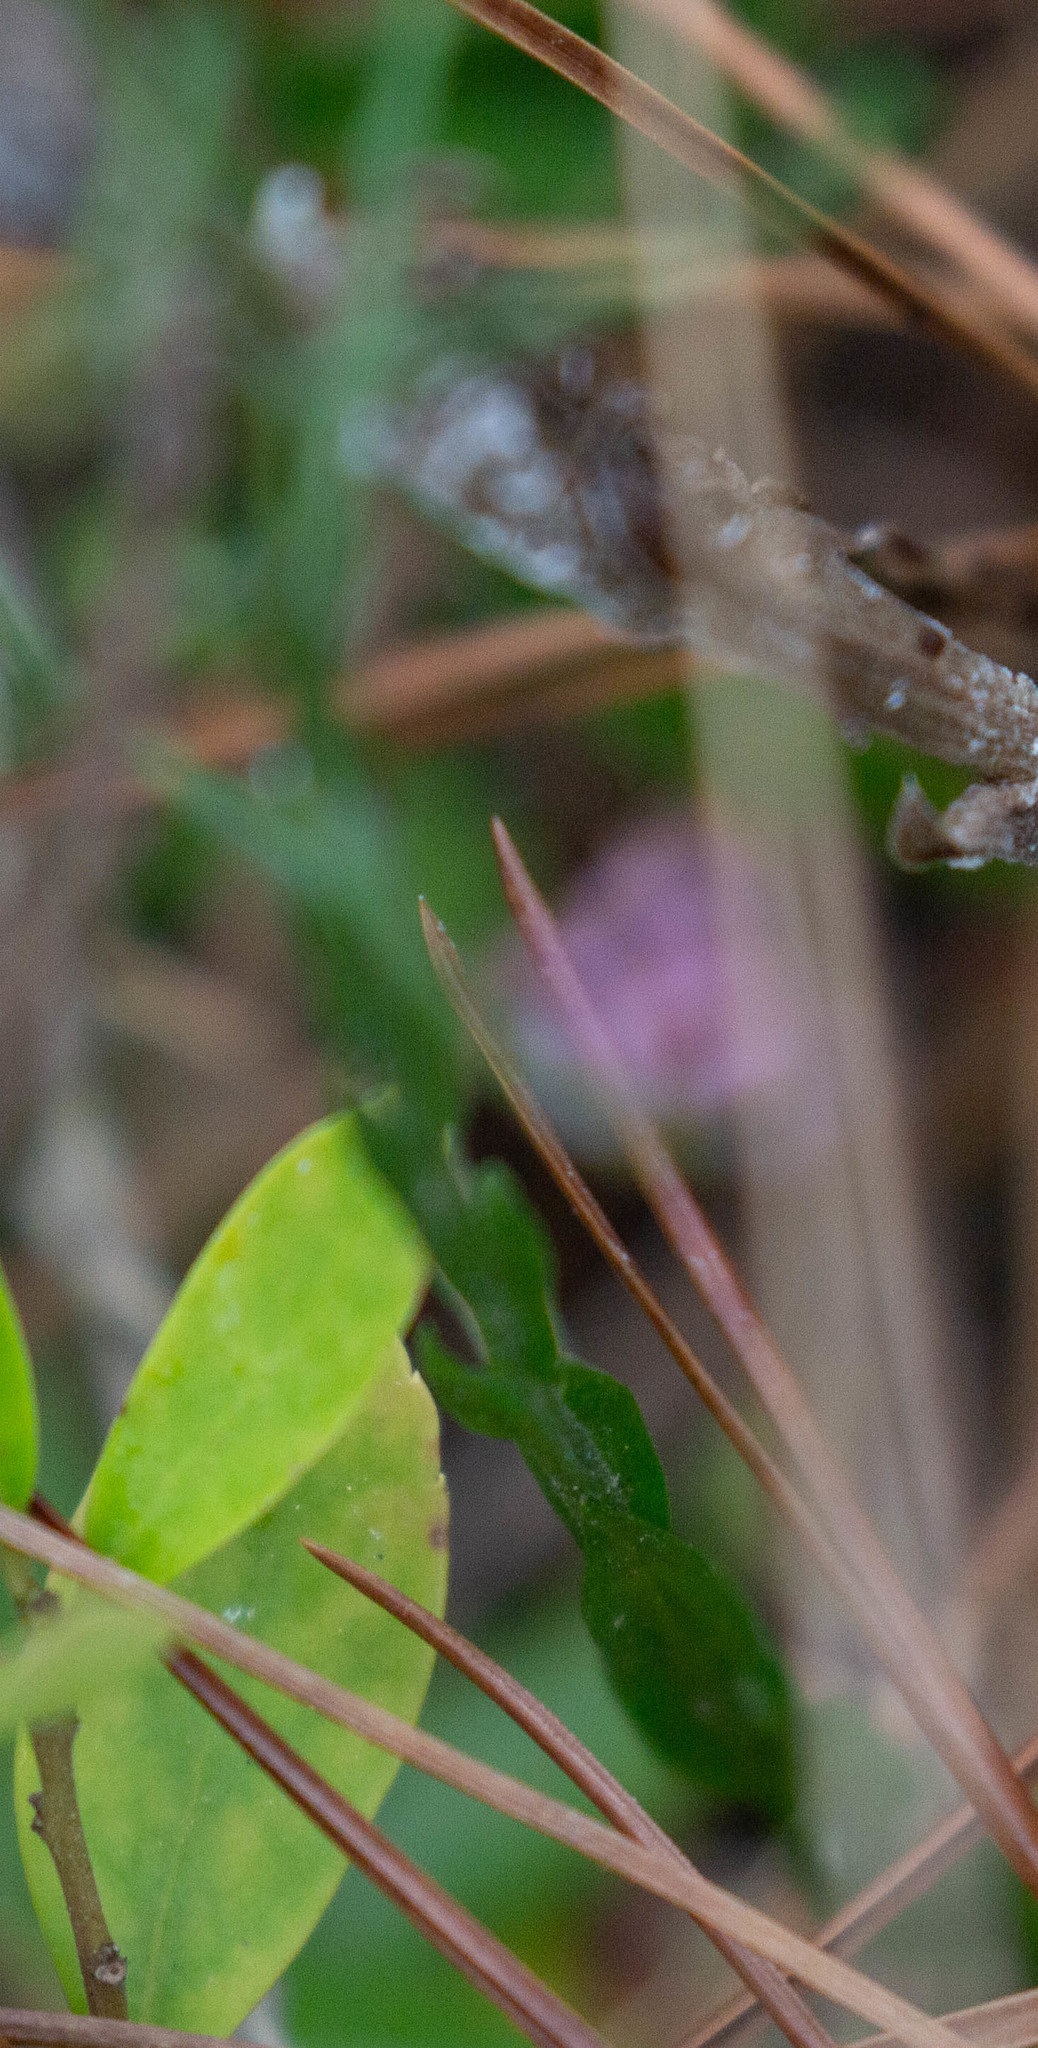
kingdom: Plantae
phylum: Tracheophyta
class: Magnoliopsida
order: Asterales
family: Asteraceae
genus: Symphyotrichum
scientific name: Symphyotrichum adnatum
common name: Scale-leaf aster
